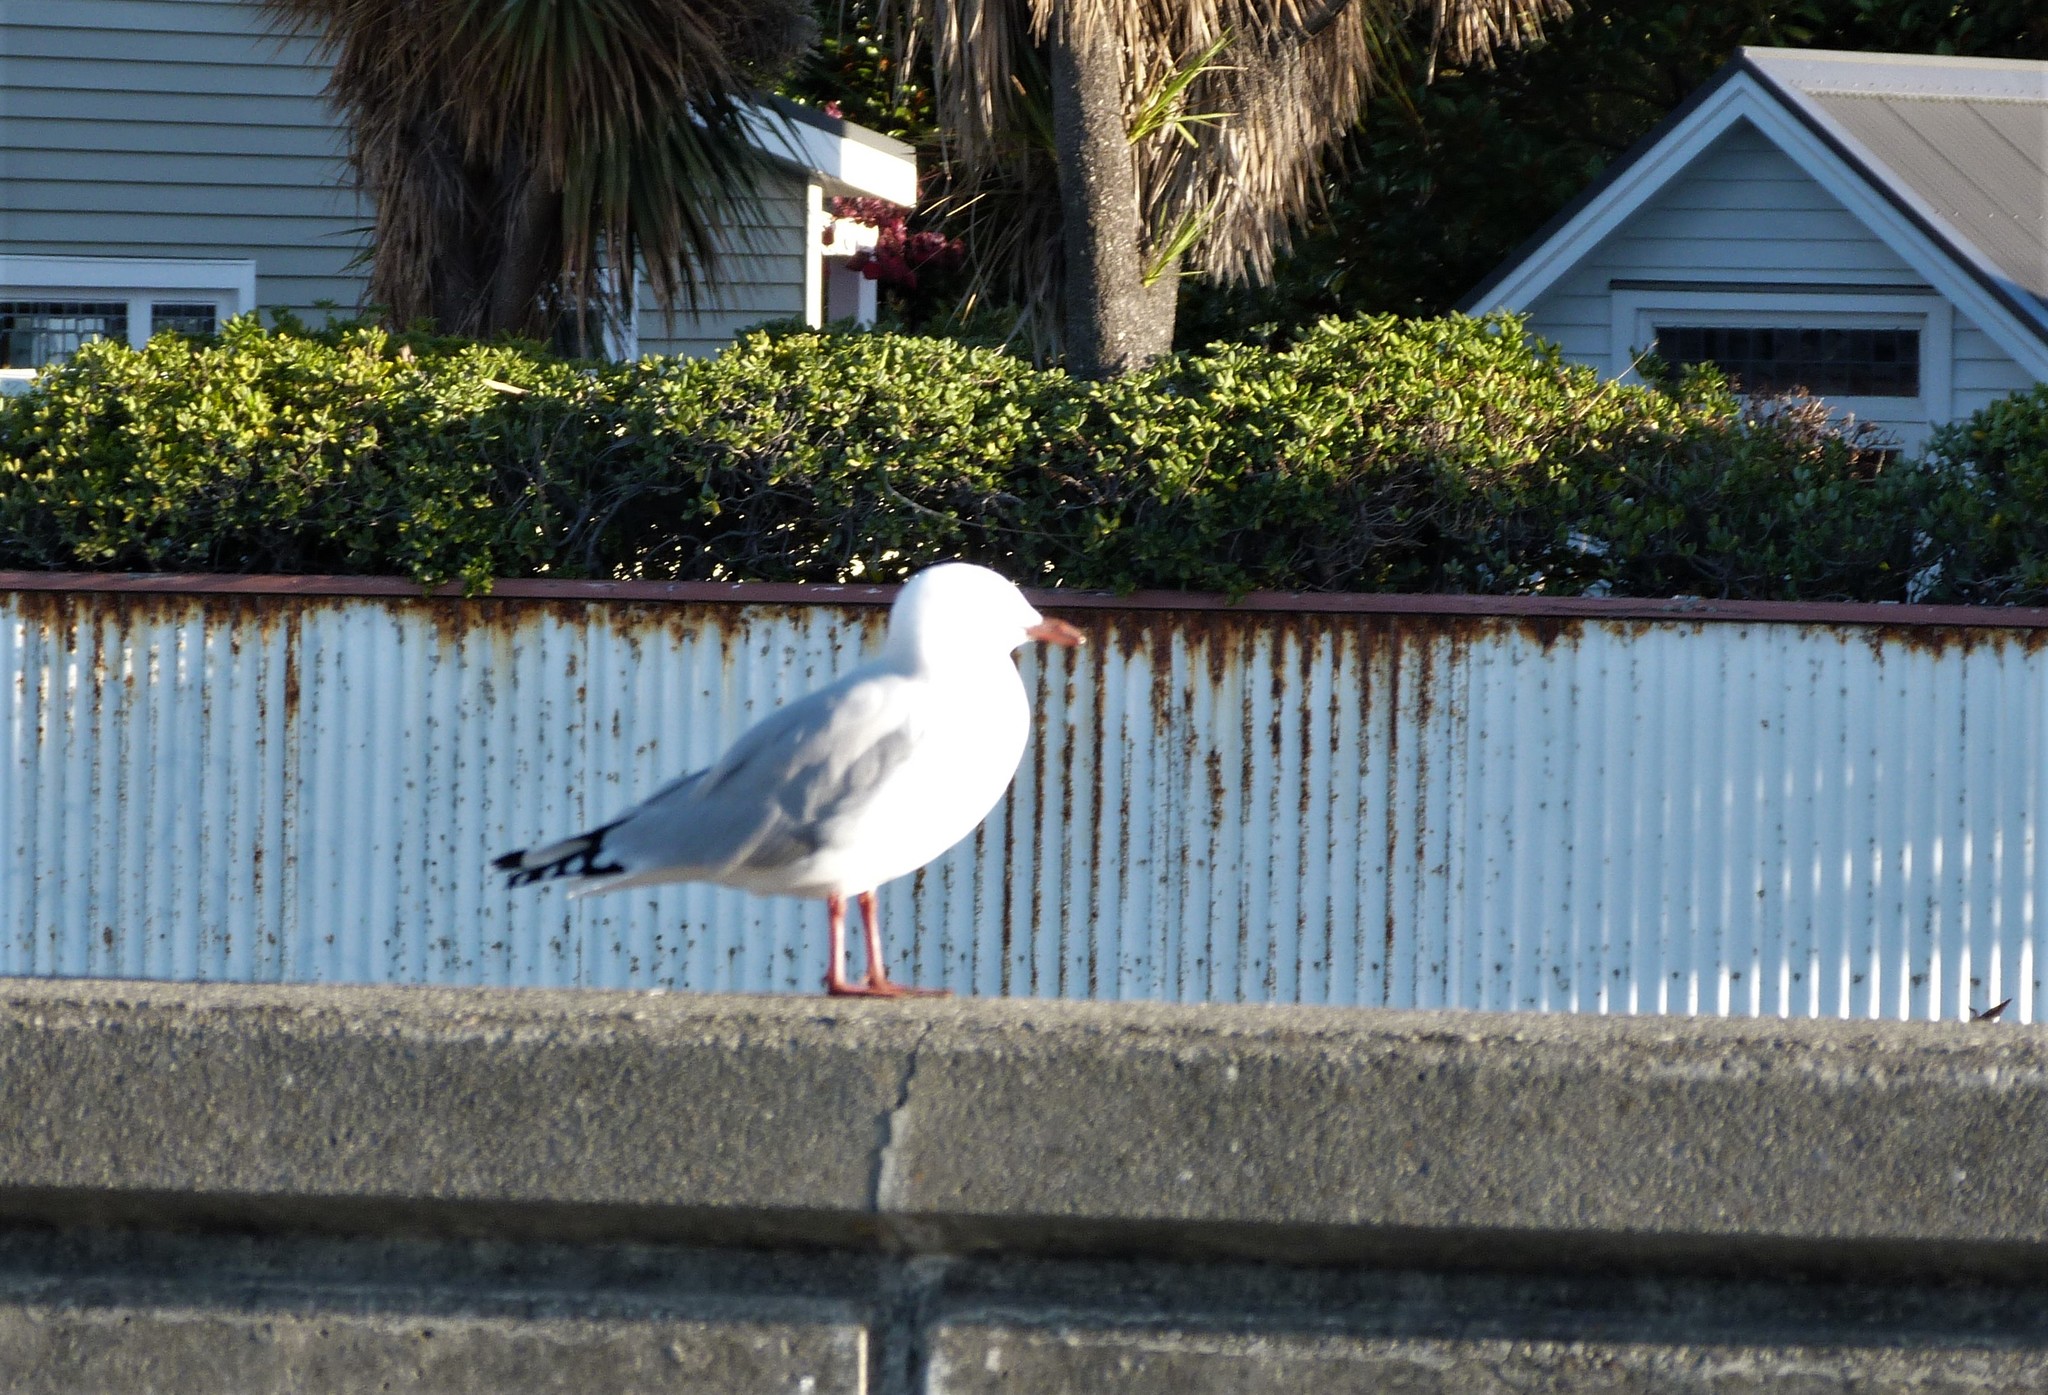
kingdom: Animalia
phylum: Chordata
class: Aves
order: Charadriiformes
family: Laridae
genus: Chroicocephalus
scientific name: Chroicocephalus novaehollandiae
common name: Silver gull
